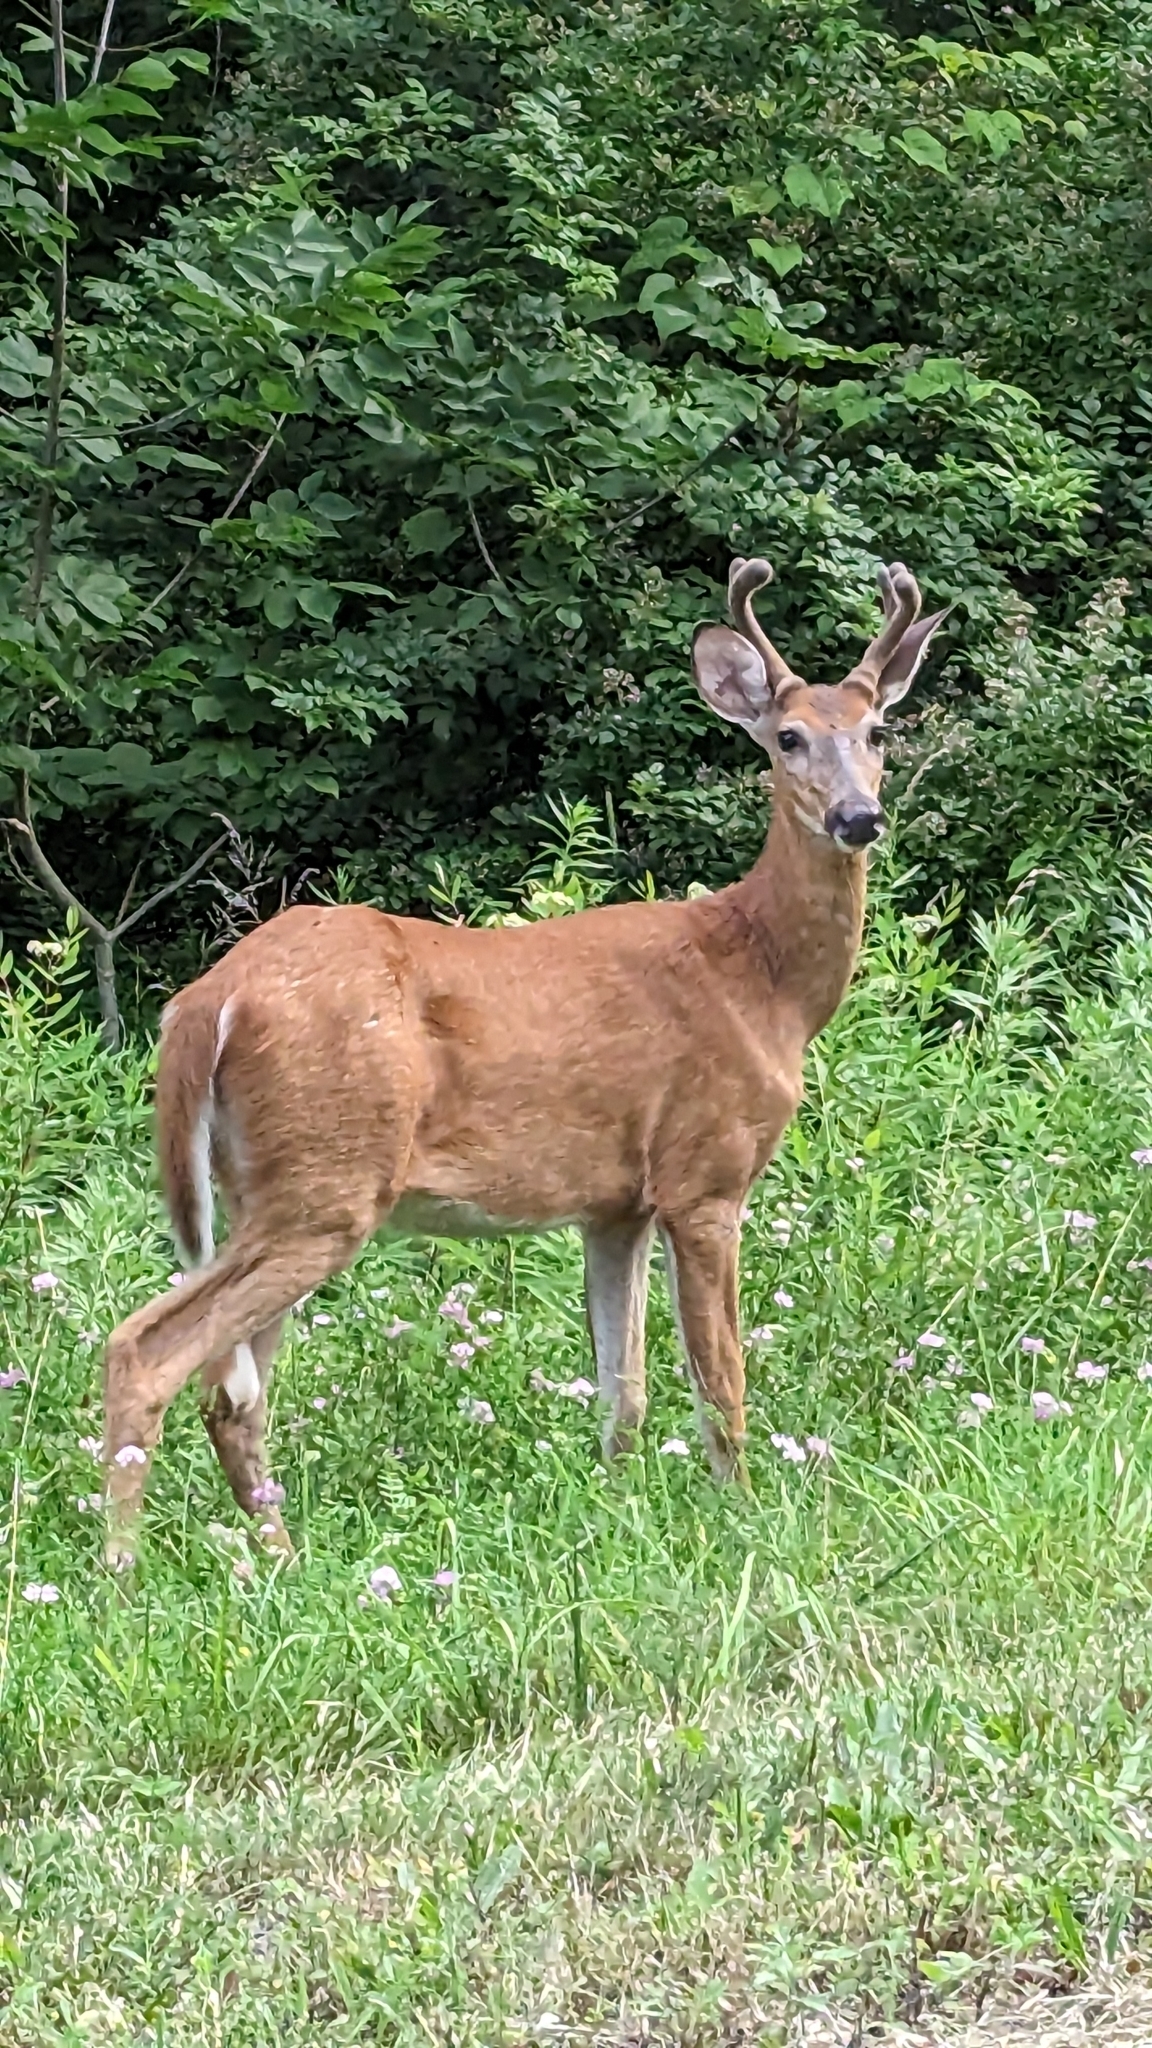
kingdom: Animalia
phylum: Chordata
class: Mammalia
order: Artiodactyla
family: Cervidae
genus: Odocoileus
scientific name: Odocoileus virginianus
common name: White-tailed deer
